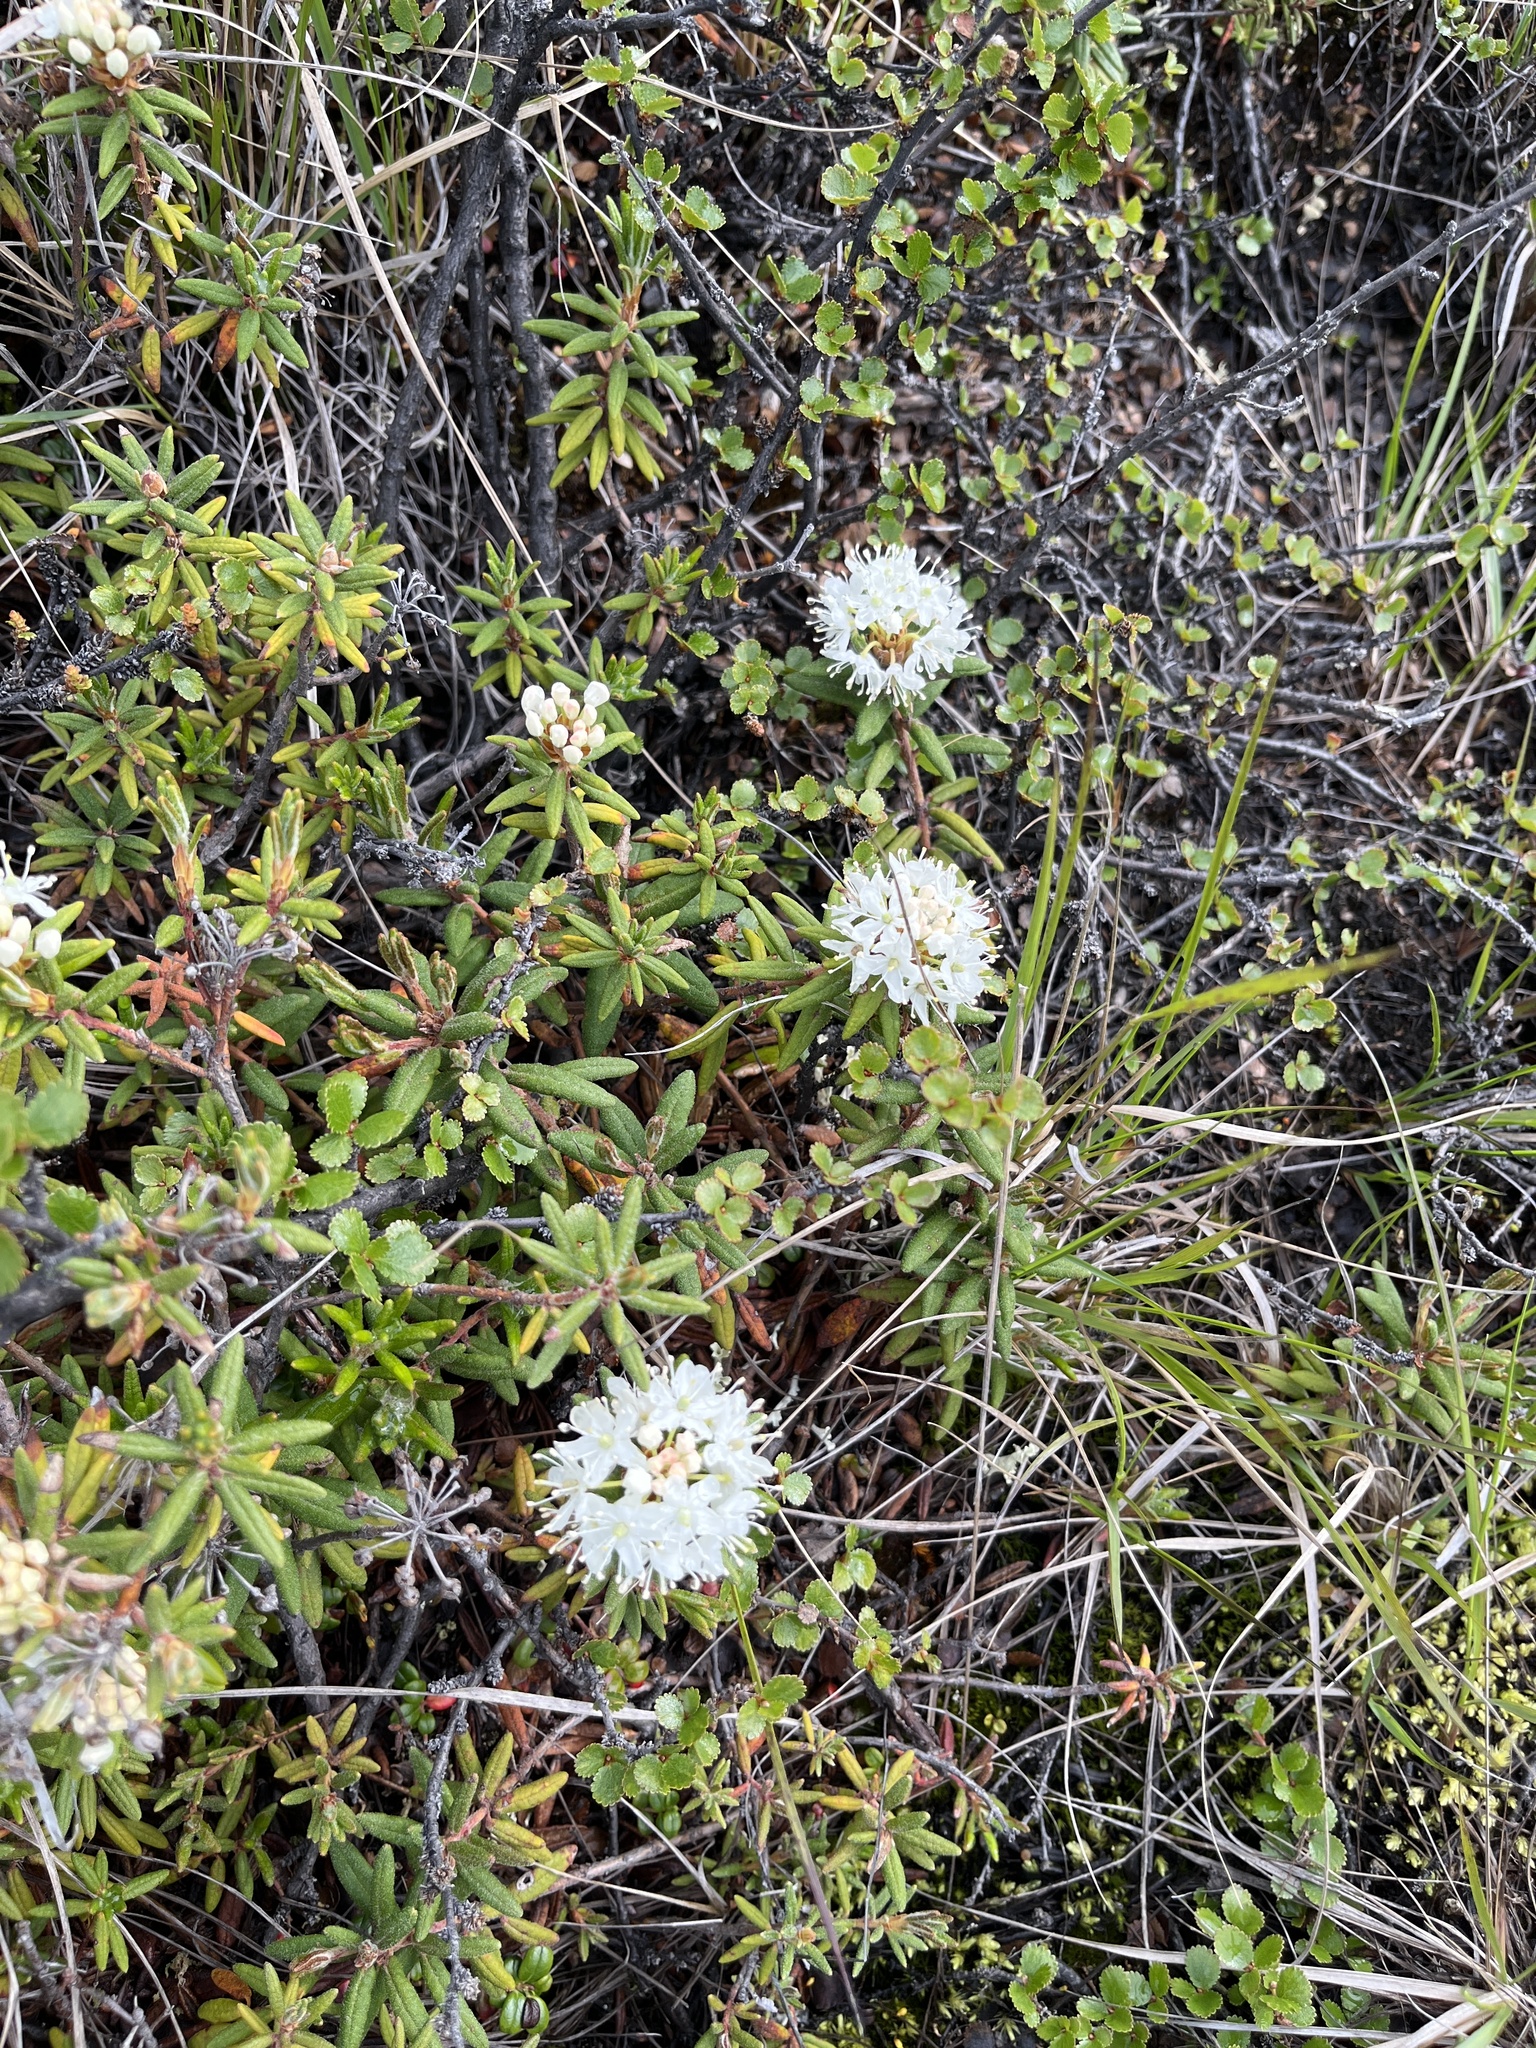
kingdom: Plantae
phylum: Tracheophyta
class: Magnoliopsida
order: Ericales
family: Ericaceae
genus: Rhododendron
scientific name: Rhododendron groenlandicum
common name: Bog labrador tea
